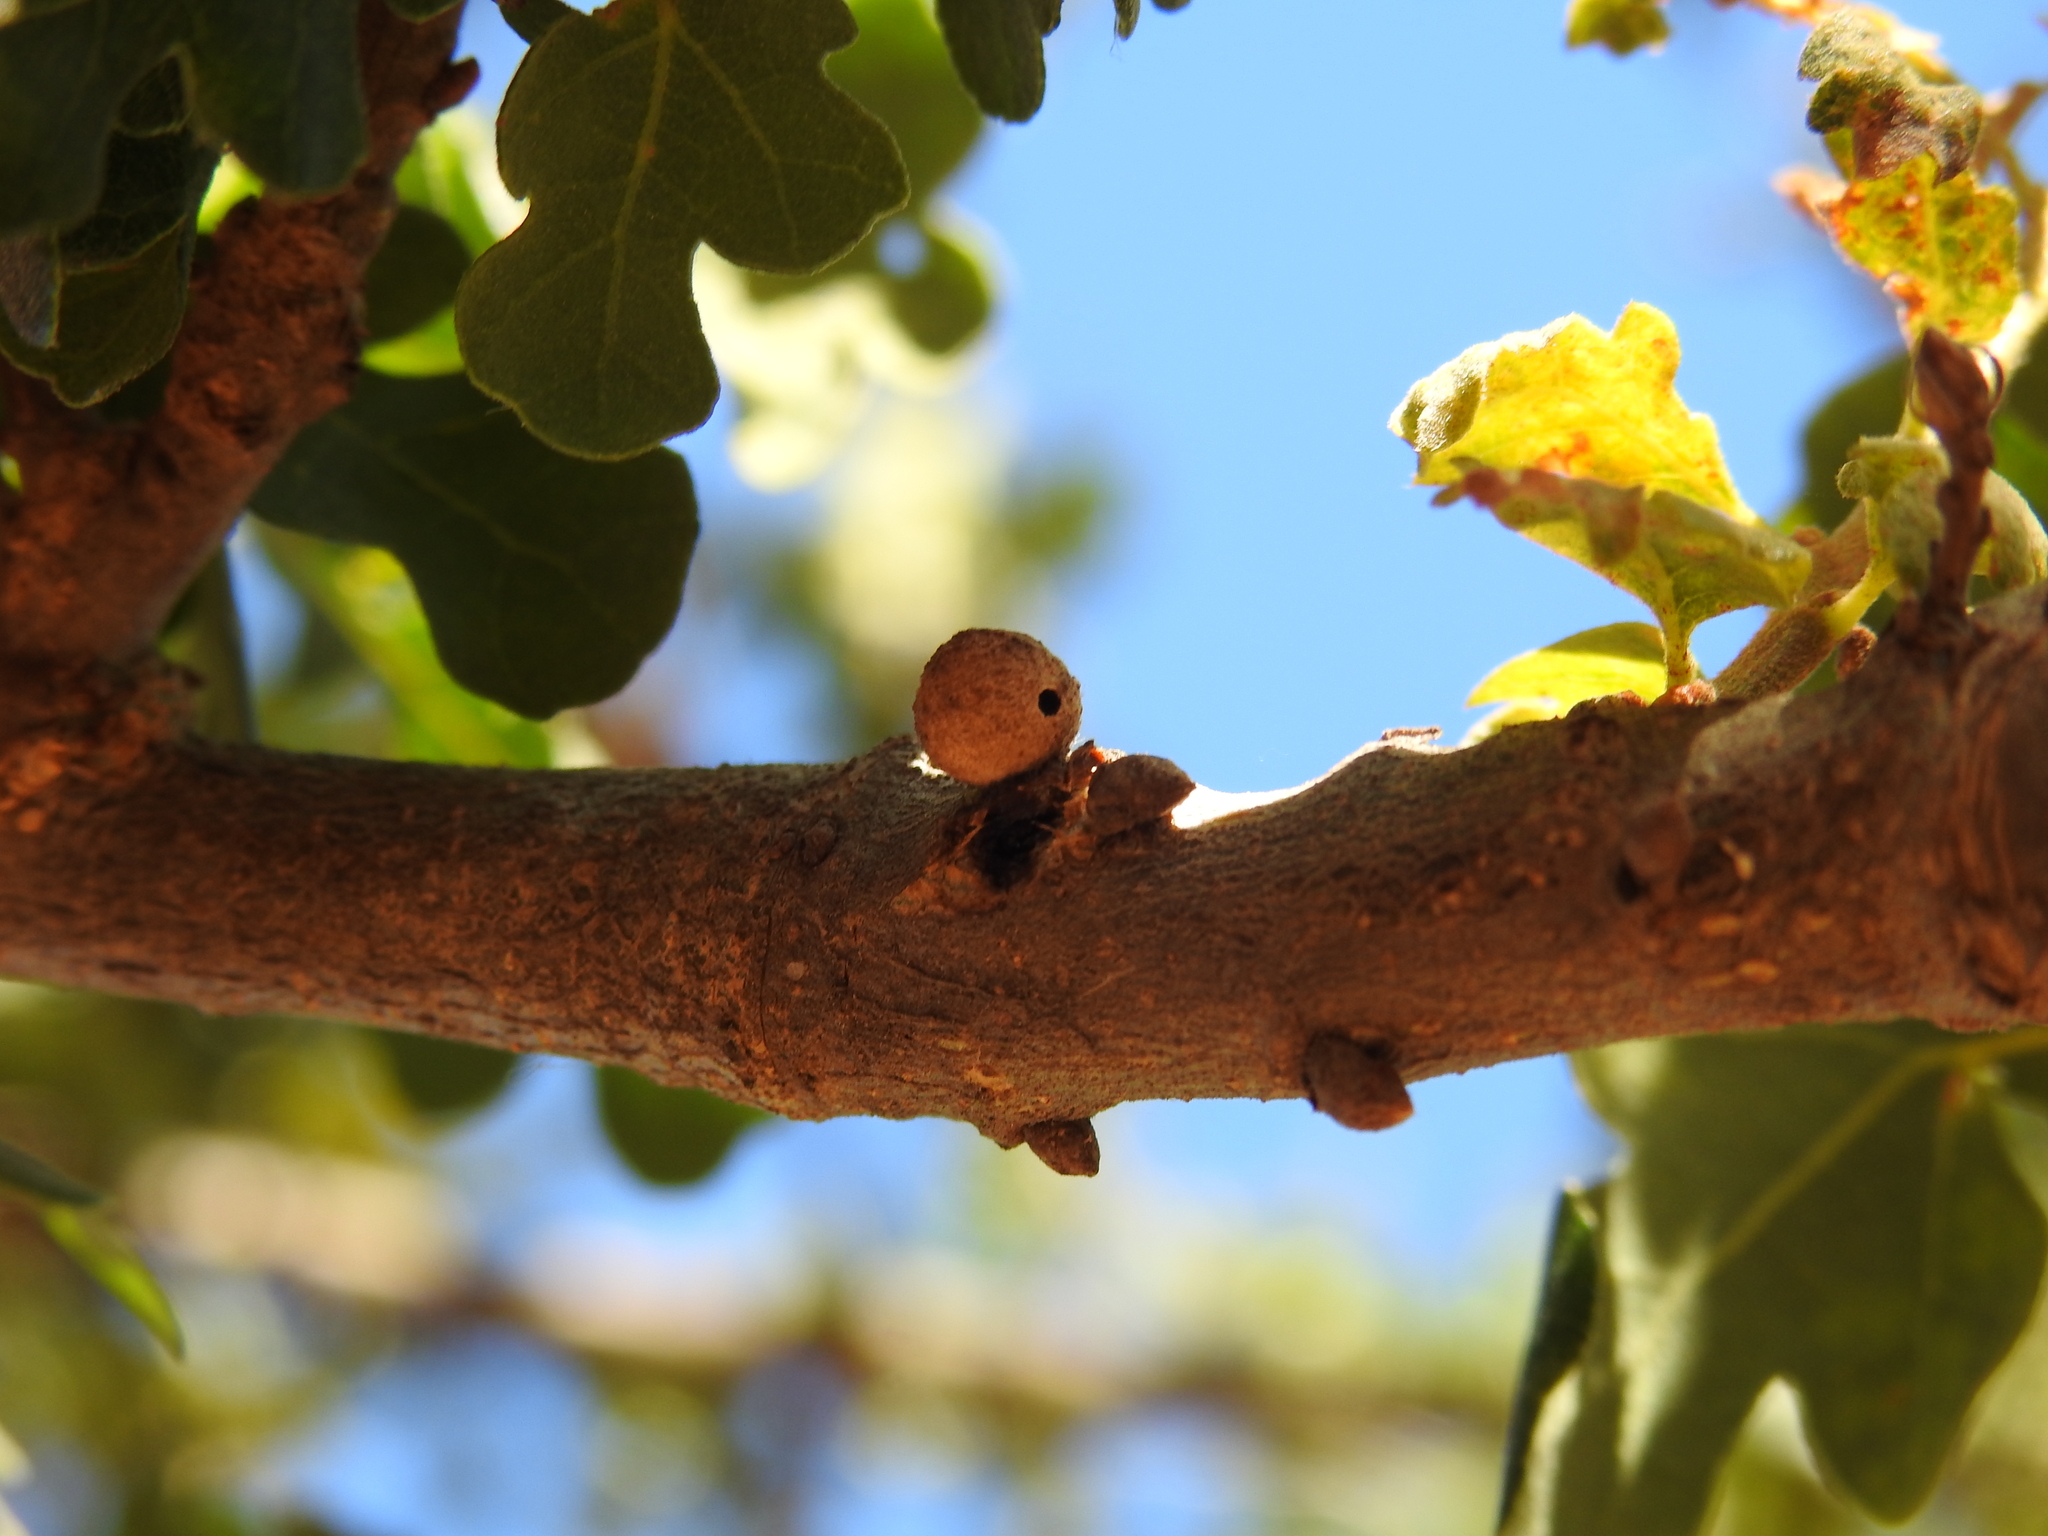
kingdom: Animalia
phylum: Arthropoda
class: Insecta
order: Hymenoptera
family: Cynipidae
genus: Burnettweldia
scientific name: Burnettweldia
